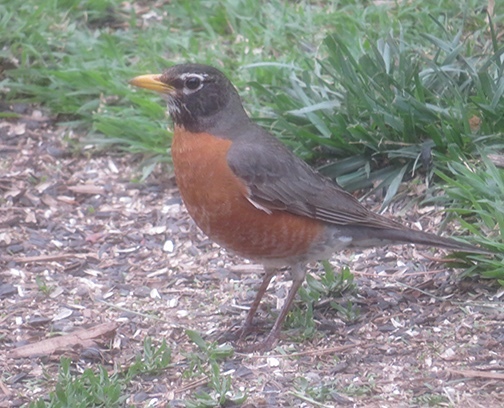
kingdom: Animalia
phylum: Chordata
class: Aves
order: Passeriformes
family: Turdidae
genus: Turdus
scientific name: Turdus migratorius
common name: American robin
